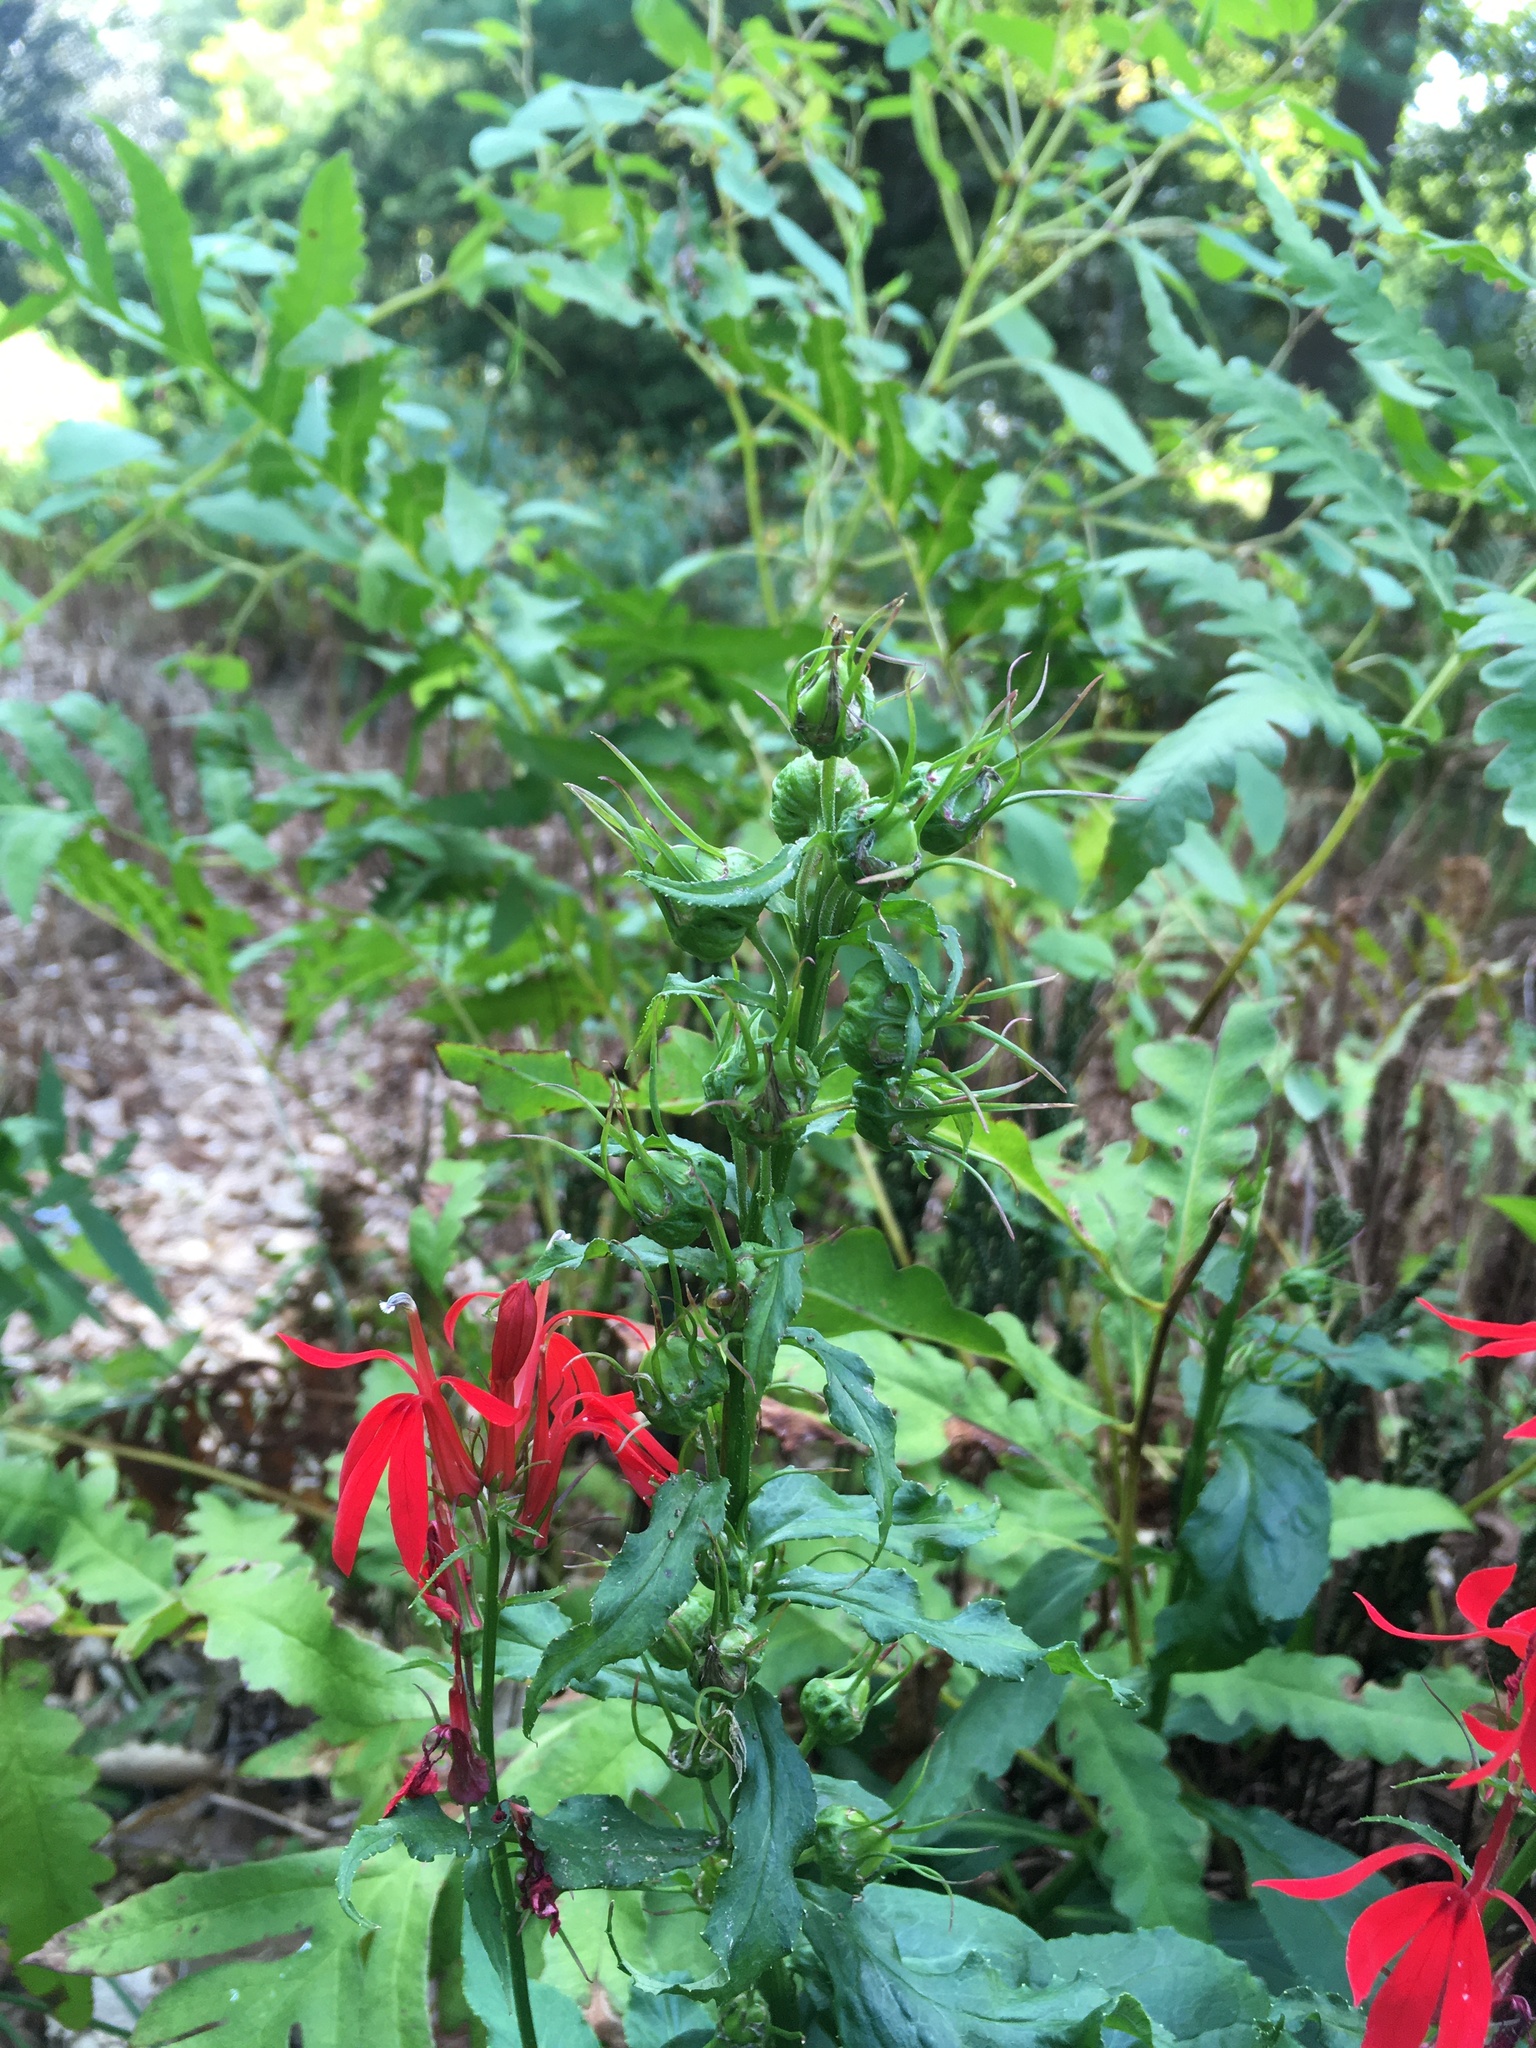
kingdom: Plantae
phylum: Tracheophyta
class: Magnoliopsida
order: Asterales
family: Campanulaceae
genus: Lobelia
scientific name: Lobelia cardinalis
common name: Cardinal flower
